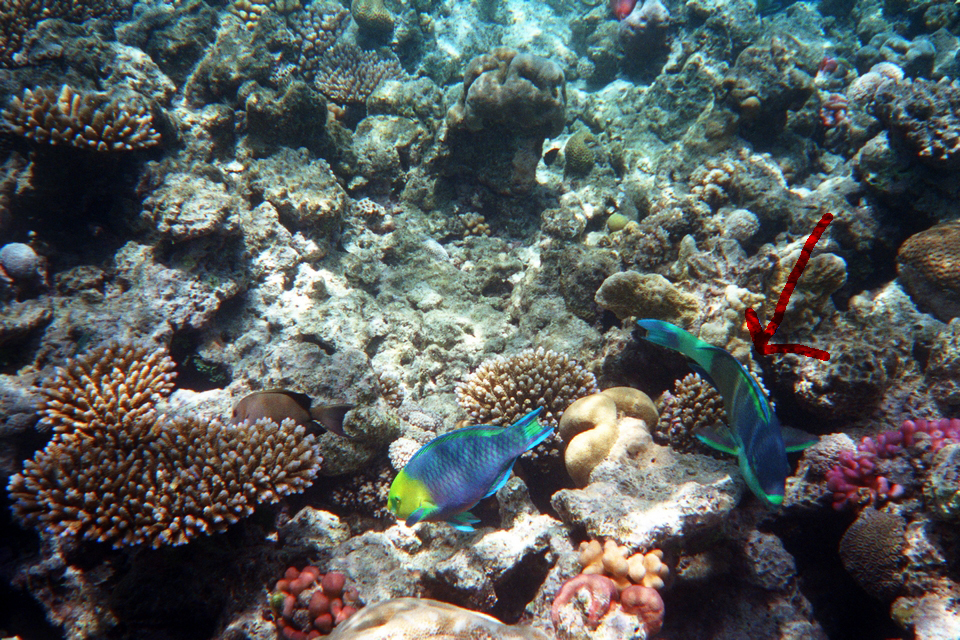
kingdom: Animalia
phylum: Chordata
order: Perciformes
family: Scaridae
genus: Scarus
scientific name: Scarus frenatus
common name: Bridled parrotfish
